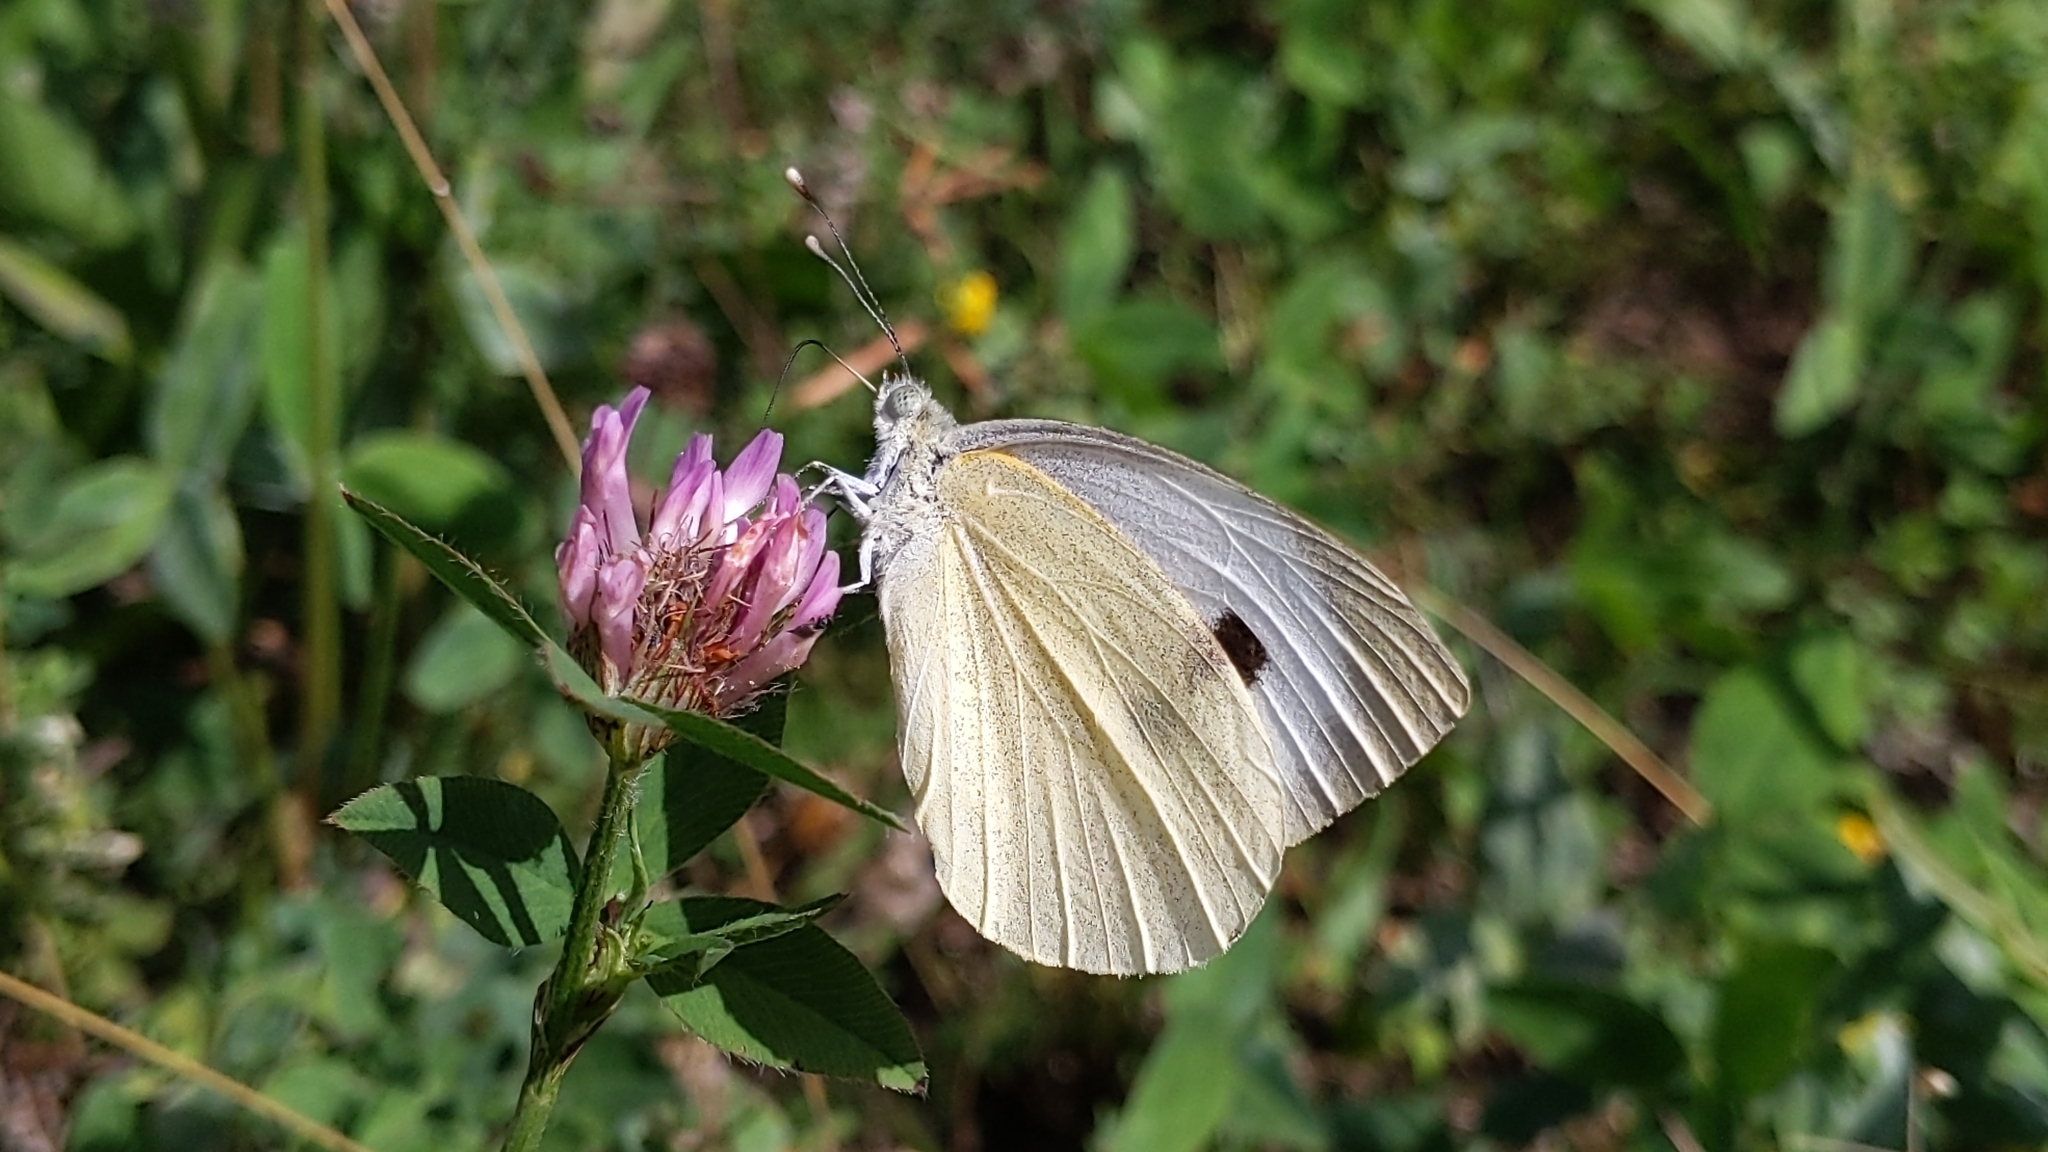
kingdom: Animalia
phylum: Arthropoda
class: Insecta
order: Lepidoptera
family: Pieridae
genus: Pieris
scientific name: Pieris brassicae
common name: Large white
